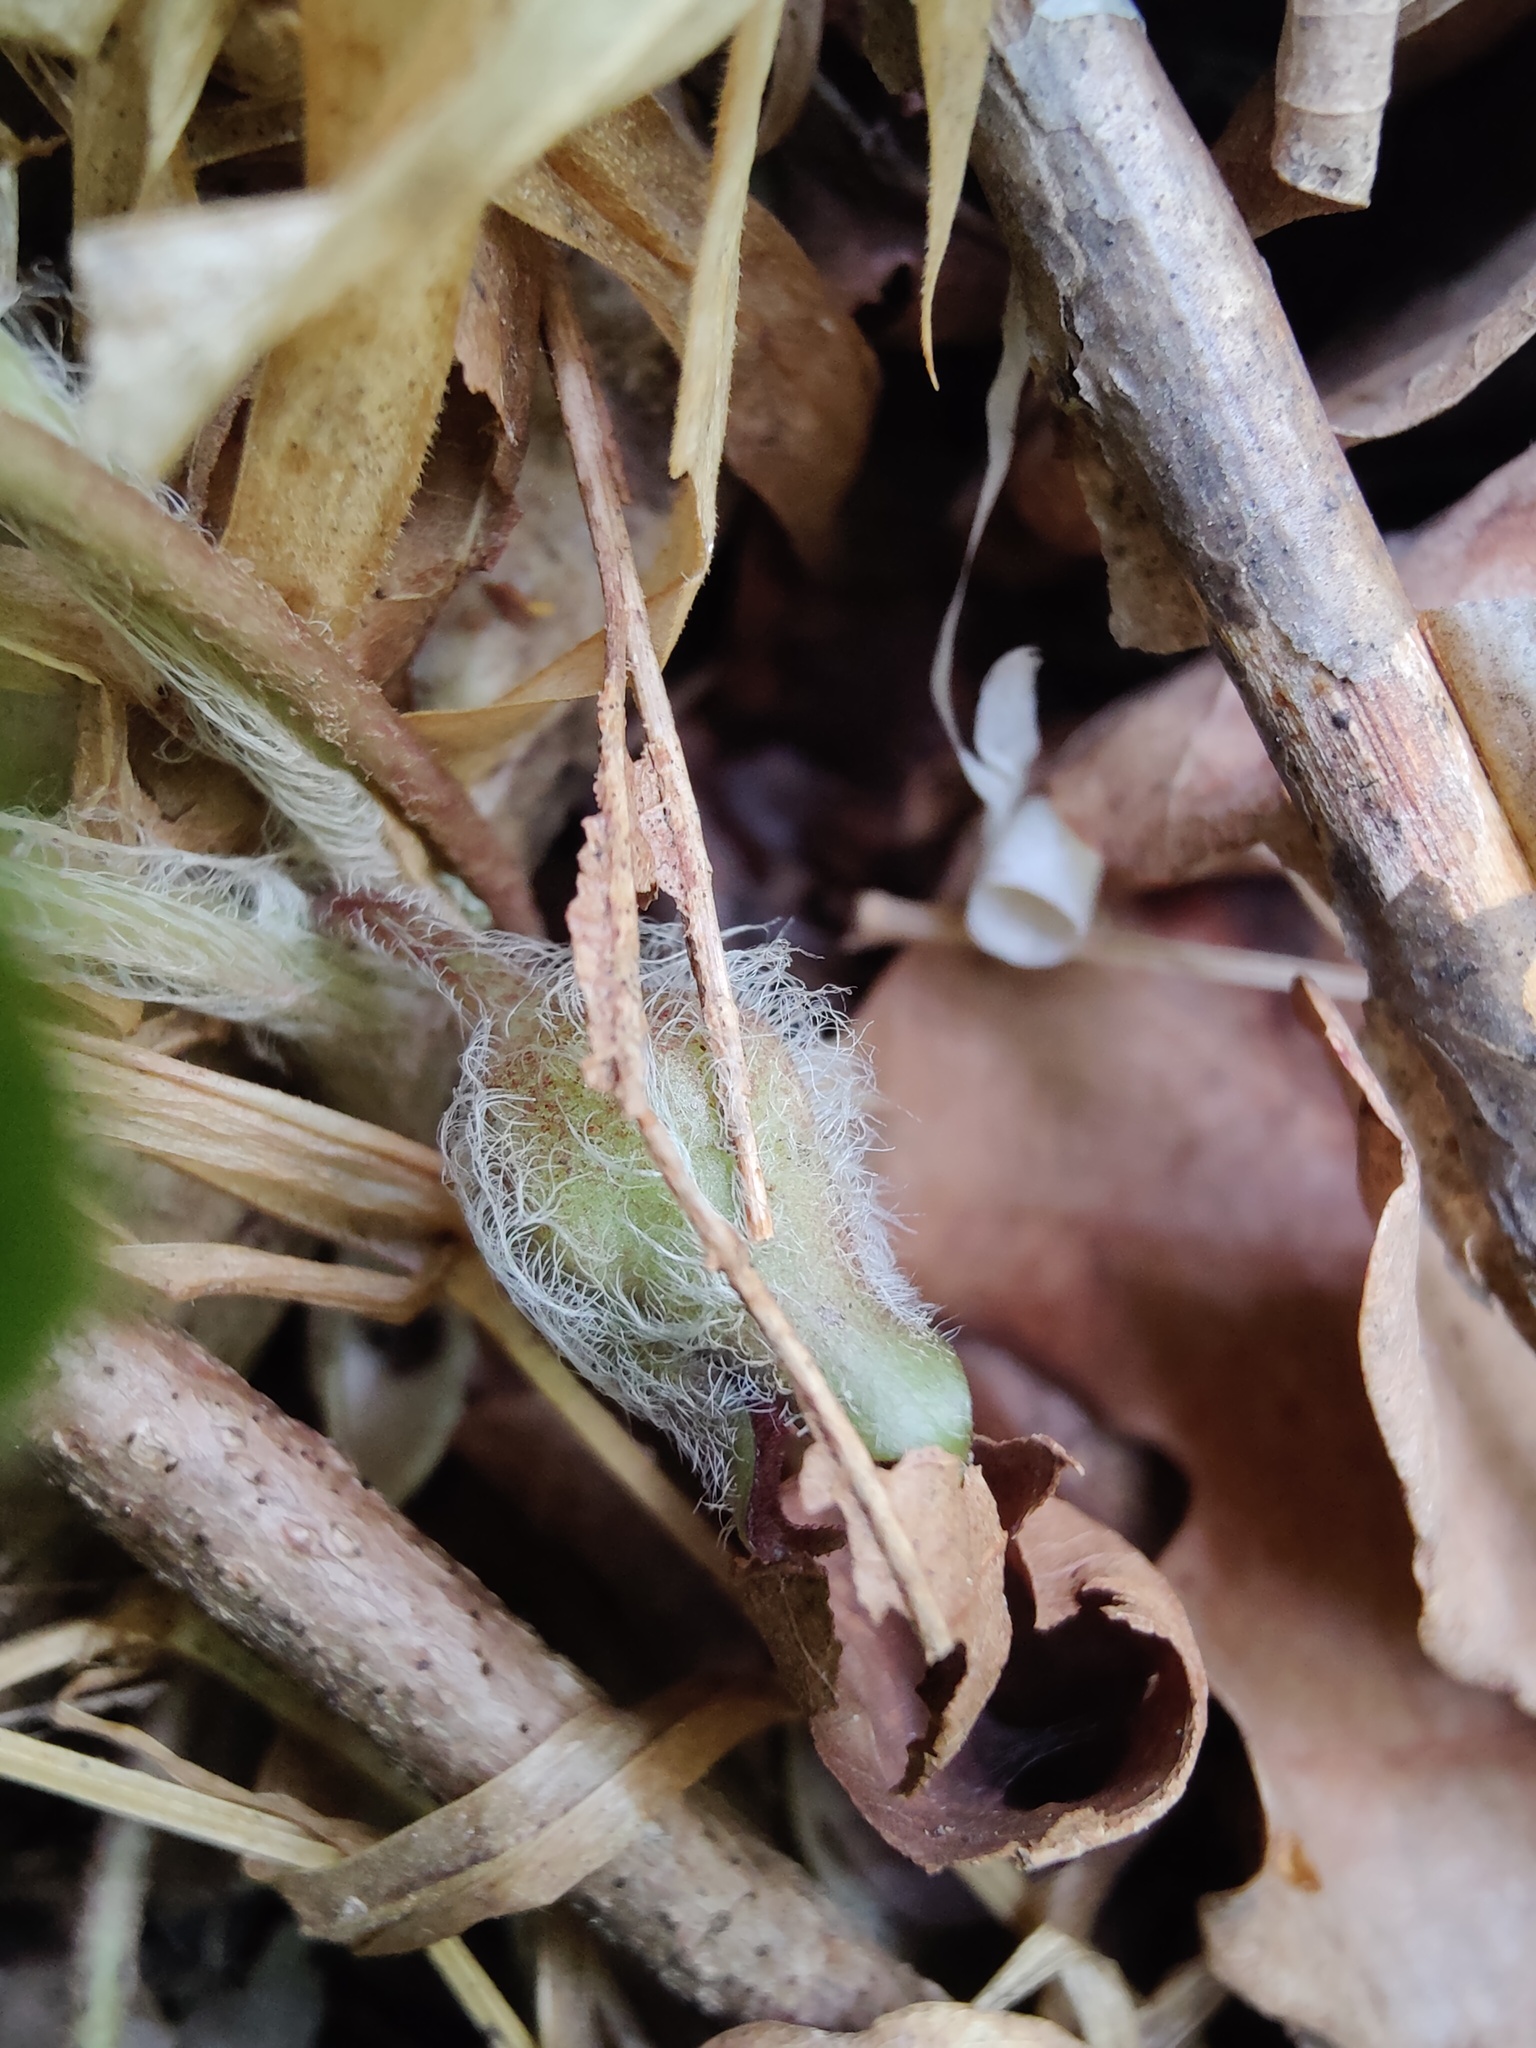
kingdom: Plantae
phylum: Tracheophyta
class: Magnoliopsida
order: Piperales
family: Aristolochiaceae
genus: Asarum
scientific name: Asarum europaeum
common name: Asarabacca
